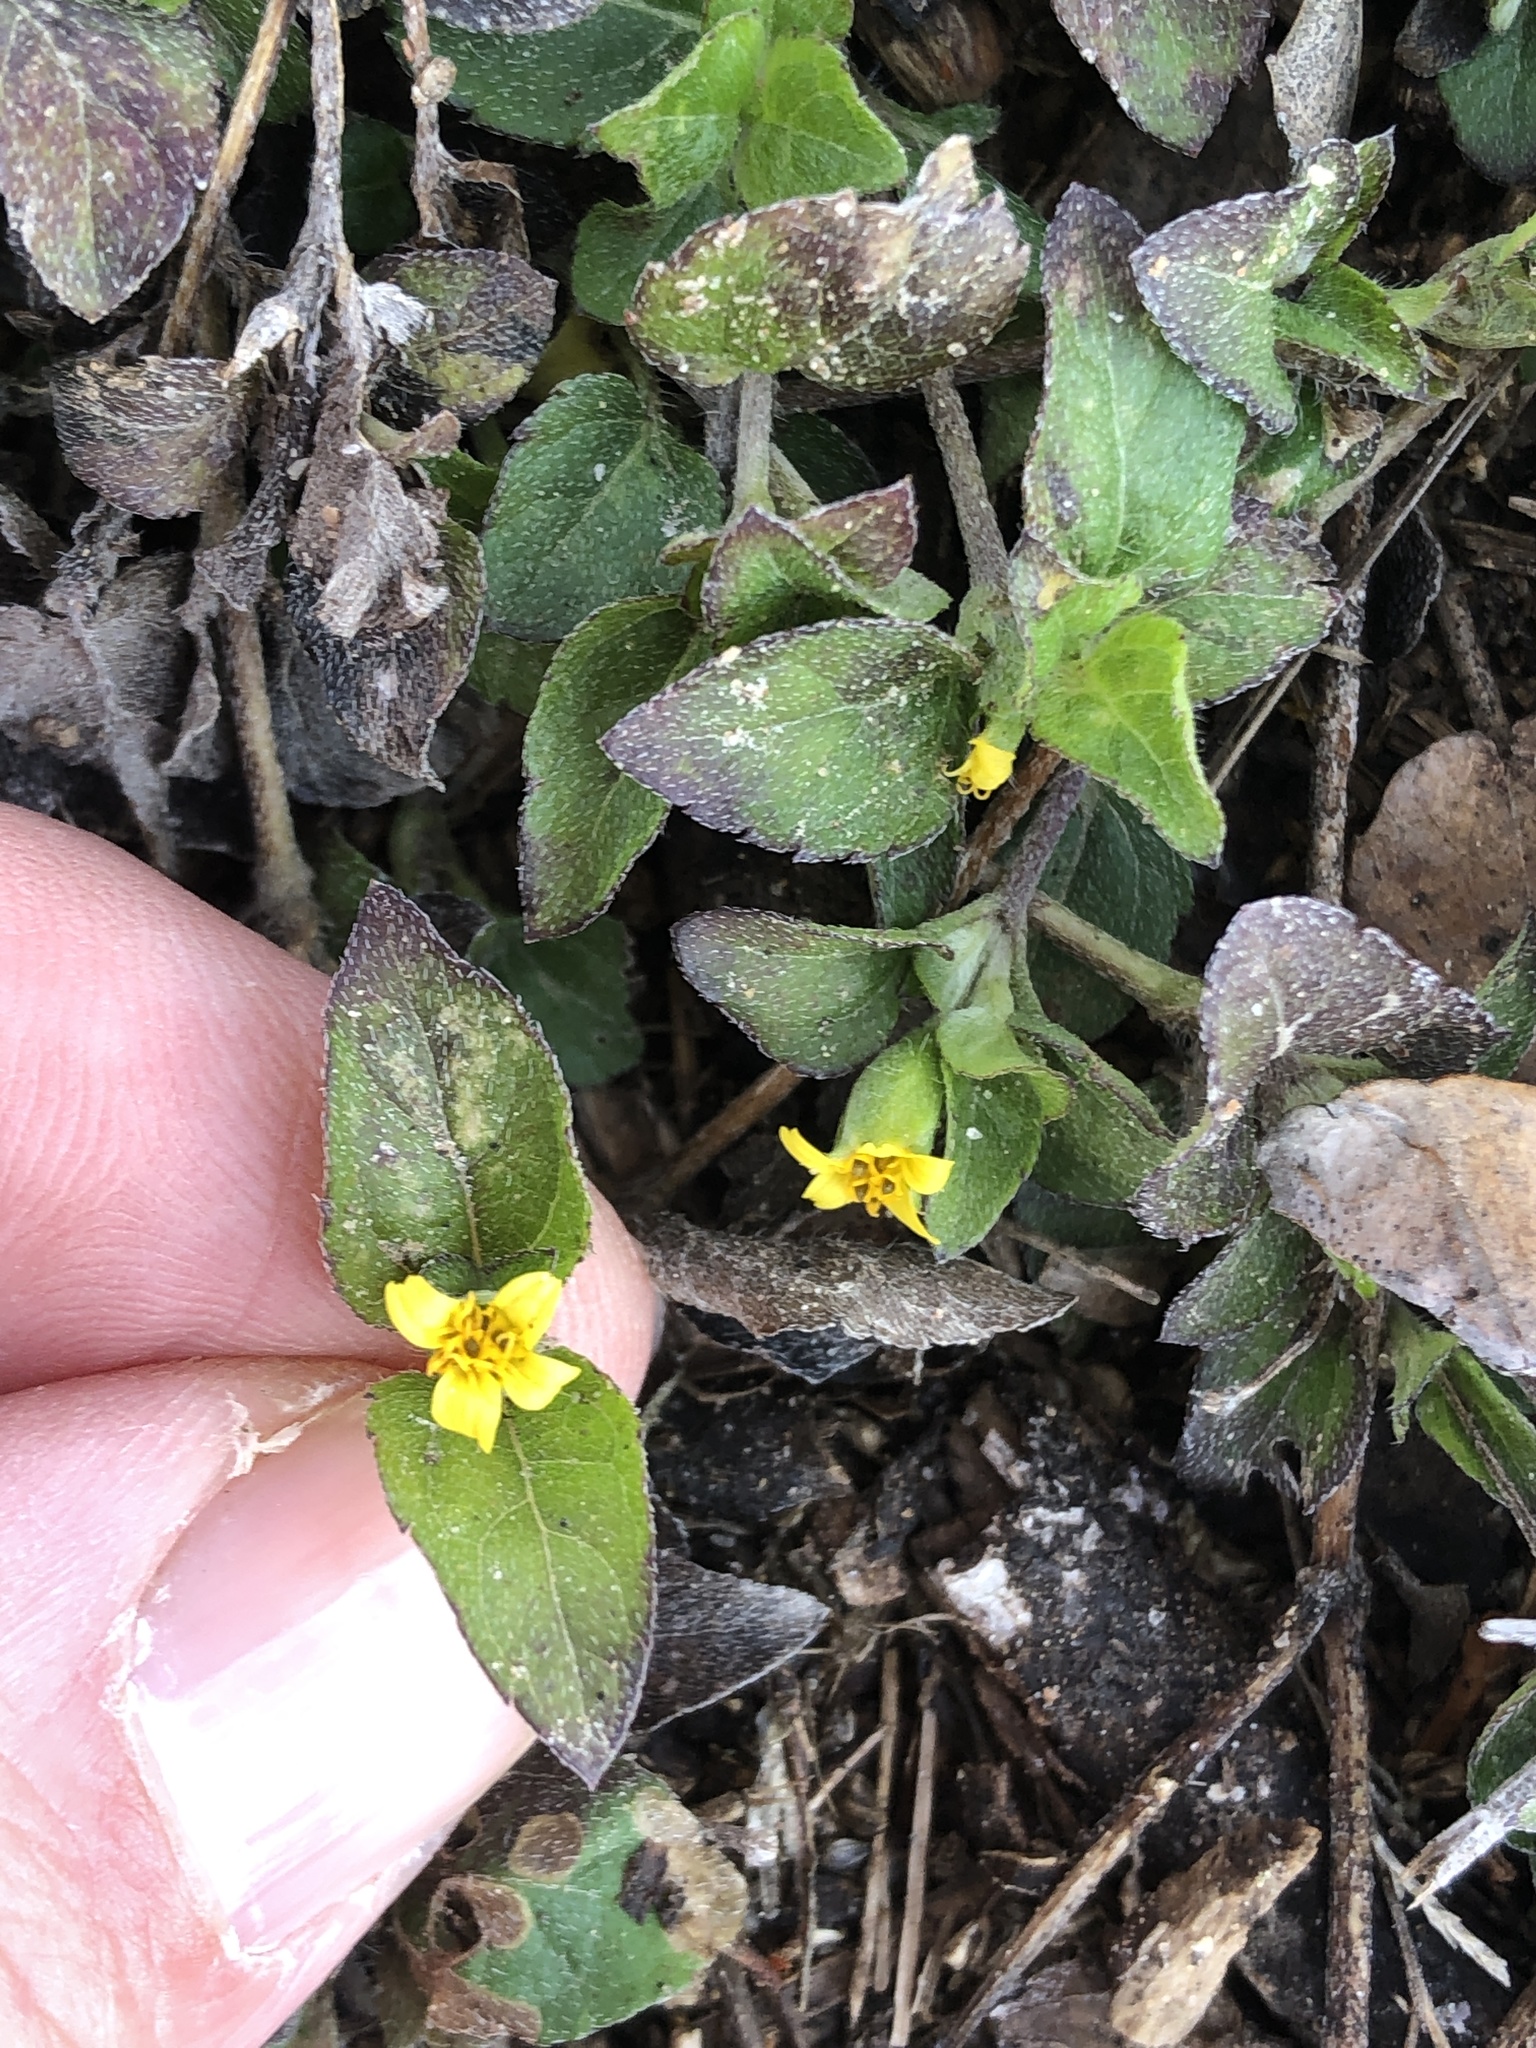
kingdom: Plantae
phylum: Tracheophyta
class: Magnoliopsida
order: Asterales
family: Asteraceae
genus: Calyptocarpus
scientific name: Calyptocarpus vialis
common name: Straggler daisy
